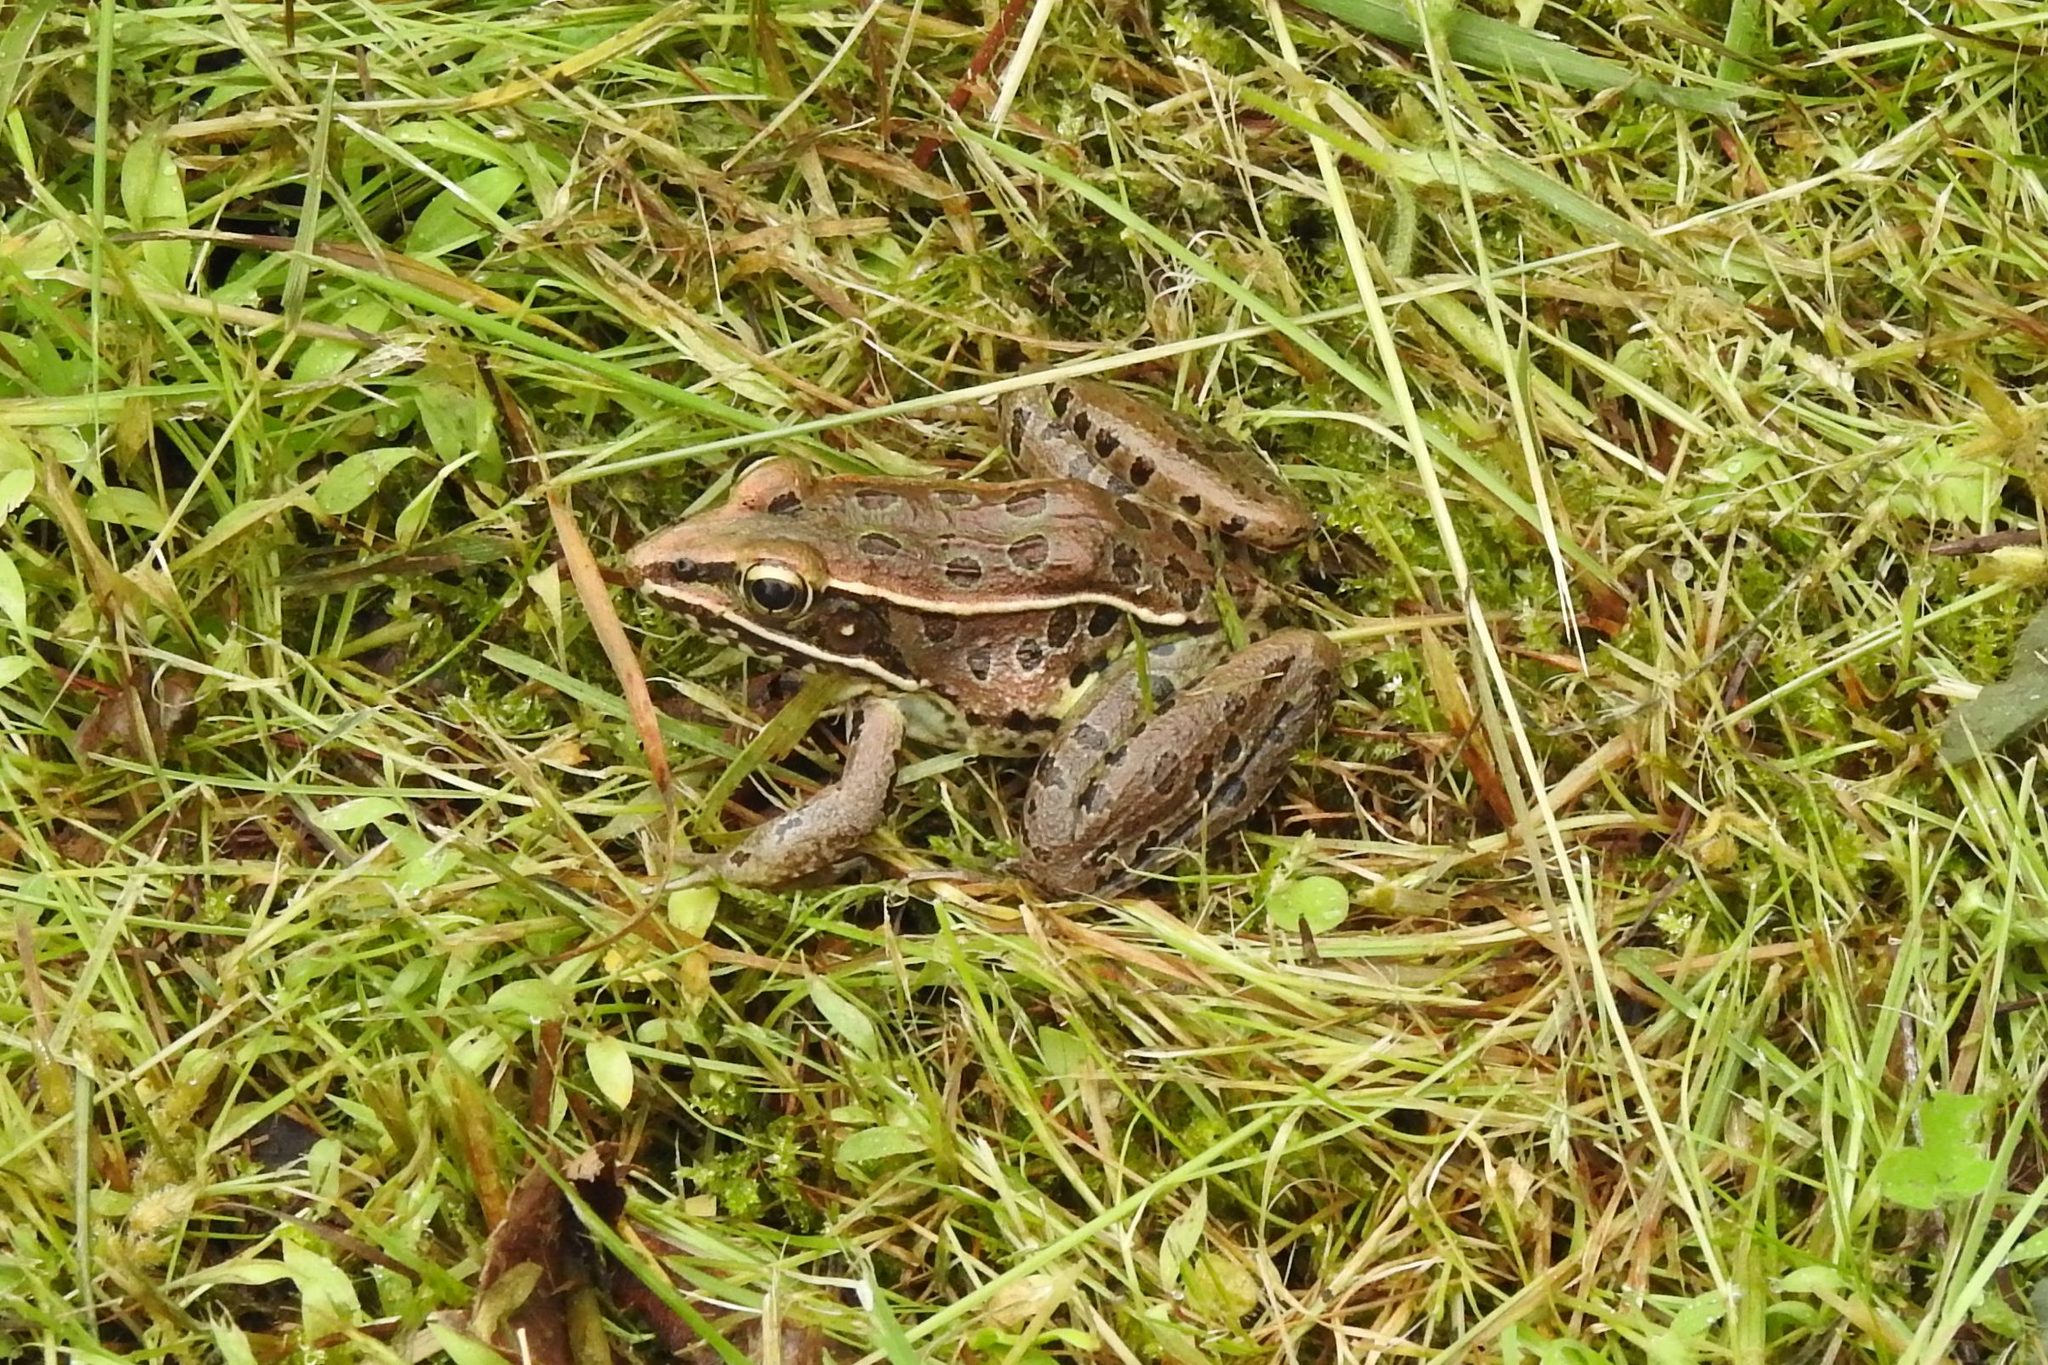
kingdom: Animalia
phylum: Chordata
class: Amphibia
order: Anura
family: Ranidae
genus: Lithobates
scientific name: Lithobates sphenocephalus
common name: Southern leopard frog
